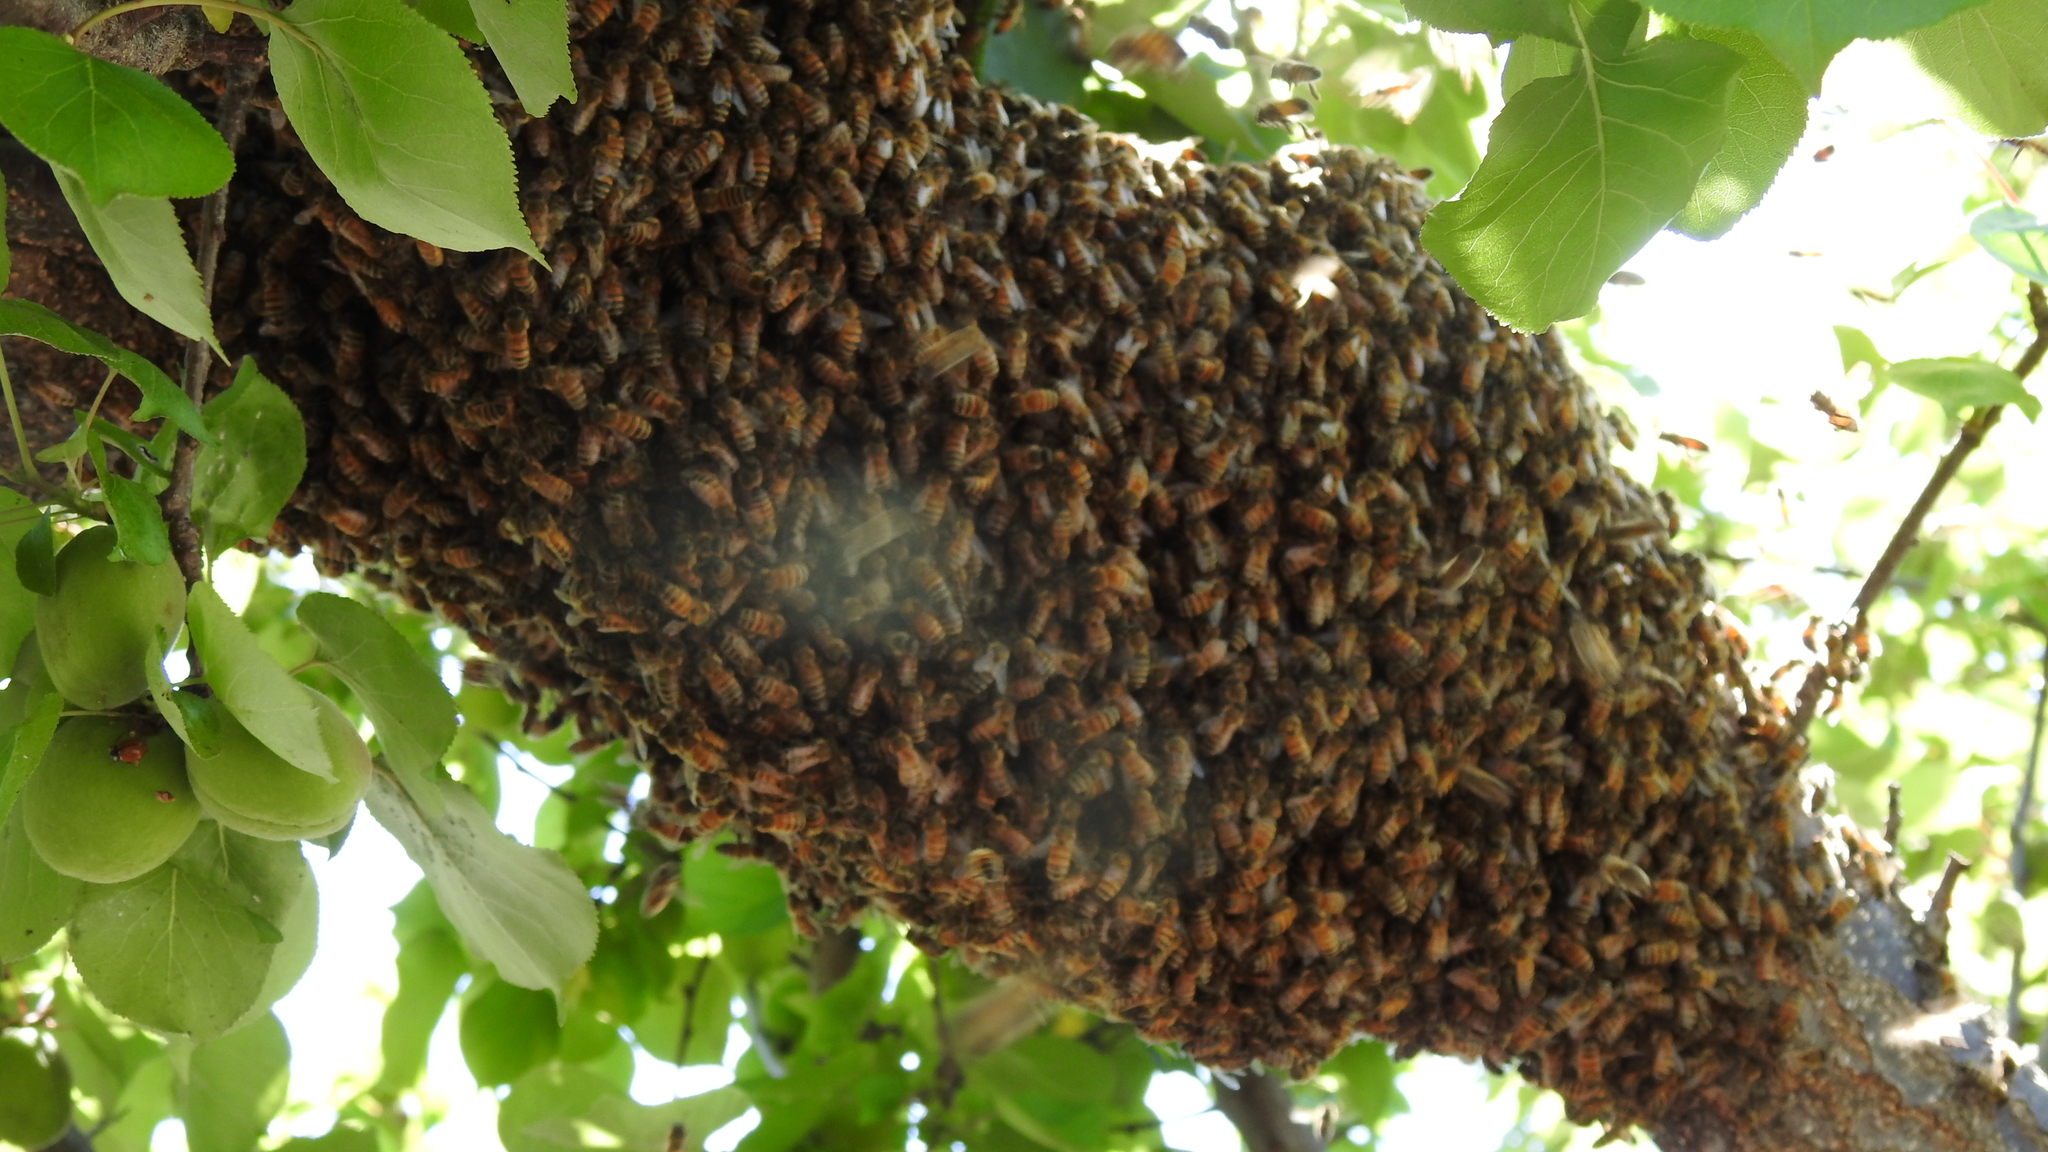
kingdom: Animalia
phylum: Arthropoda
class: Insecta
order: Hymenoptera
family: Apidae
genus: Apis
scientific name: Apis mellifera
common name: Honey bee
